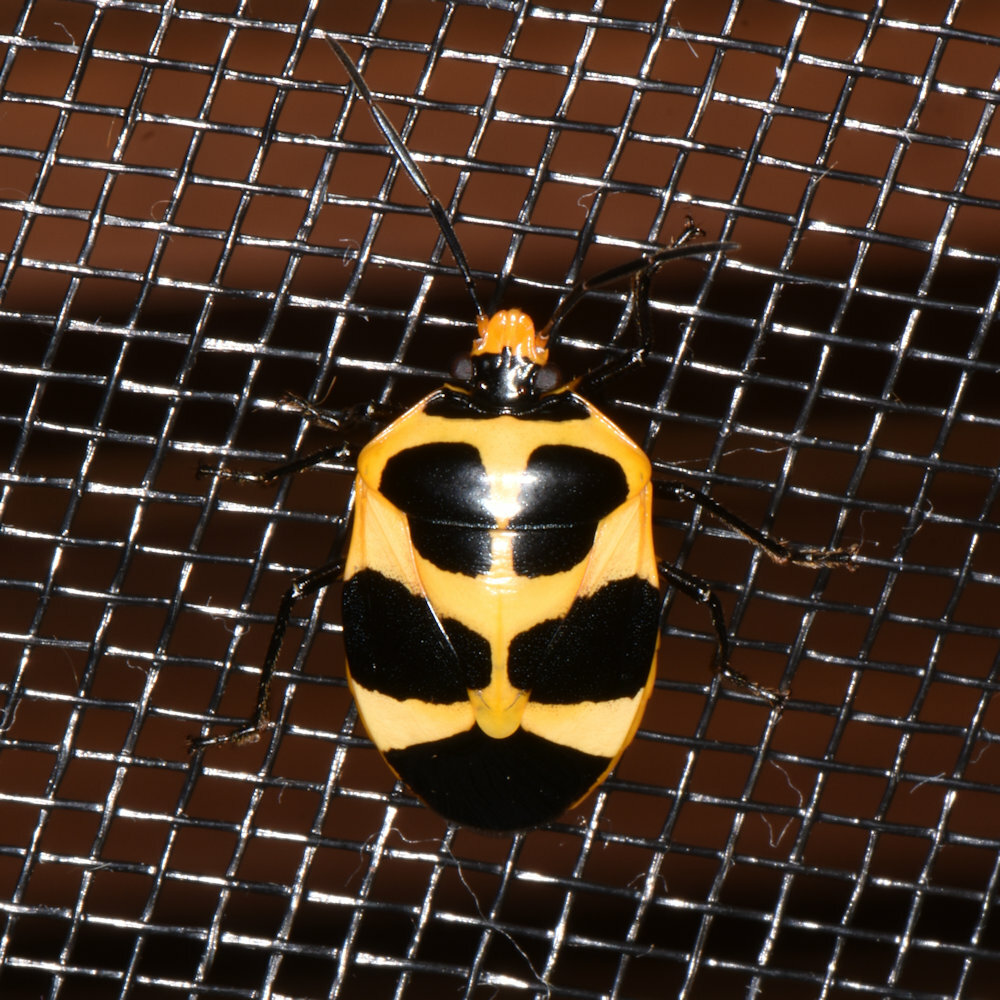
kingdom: Animalia
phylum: Arthropoda
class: Insecta
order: Hemiptera
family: Pentatomidae
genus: Arocera
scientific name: Arocera apta
